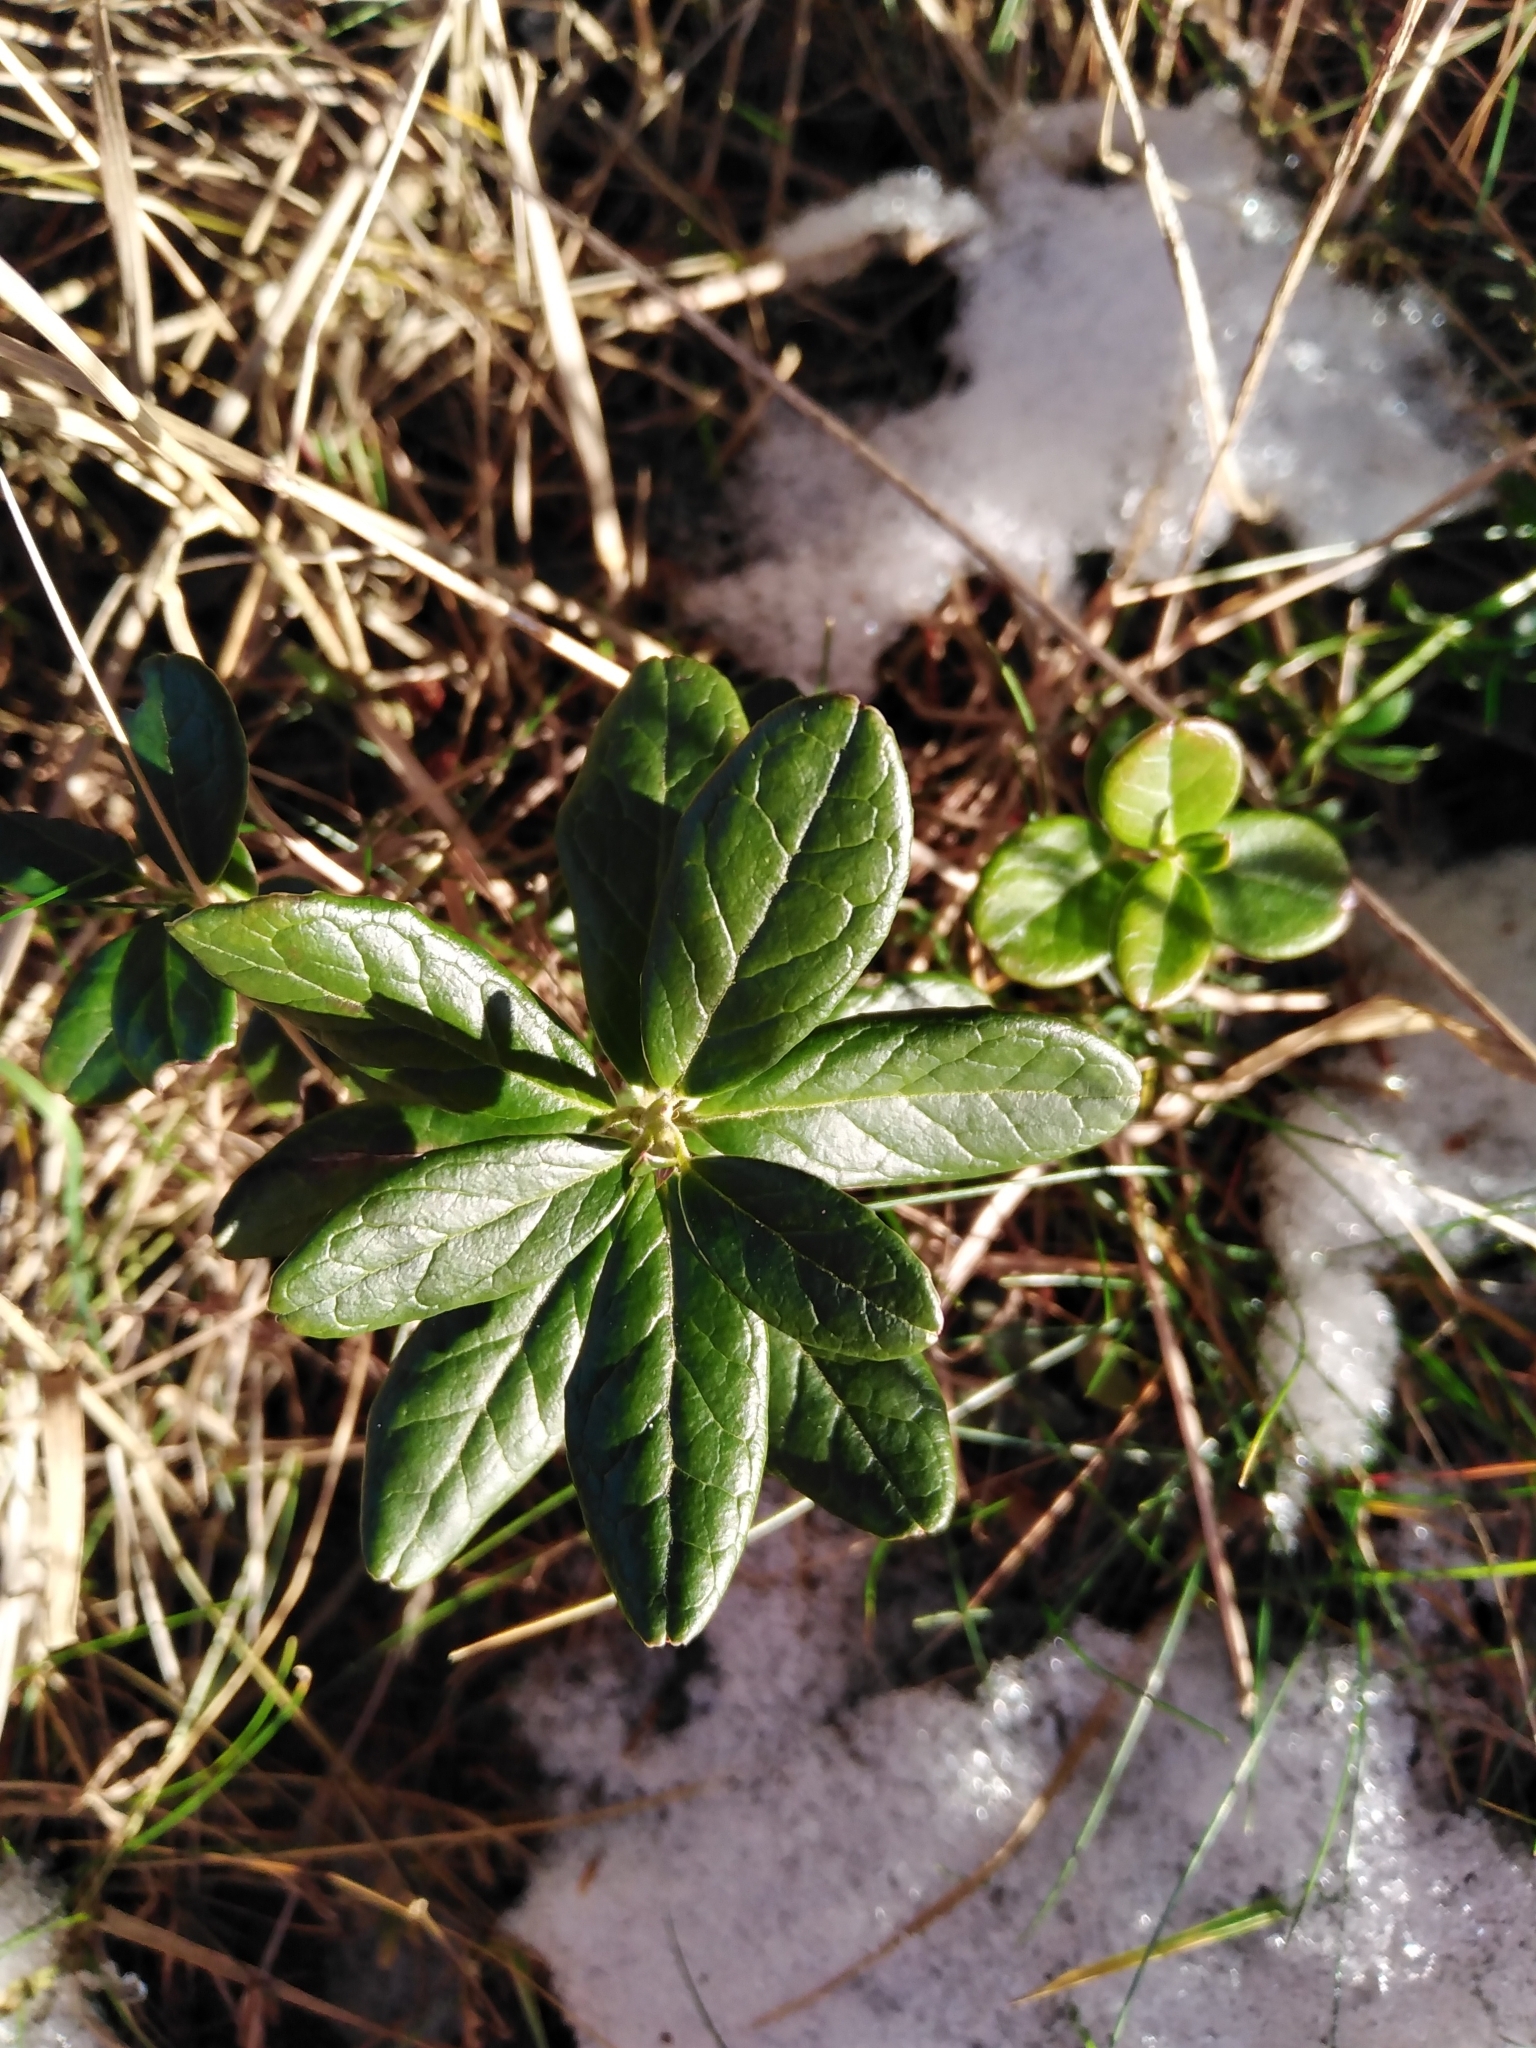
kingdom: Plantae
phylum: Tracheophyta
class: Magnoliopsida
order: Ericales
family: Ericaceae
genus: Vaccinium
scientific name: Vaccinium vitis-idaea
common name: Cowberry
